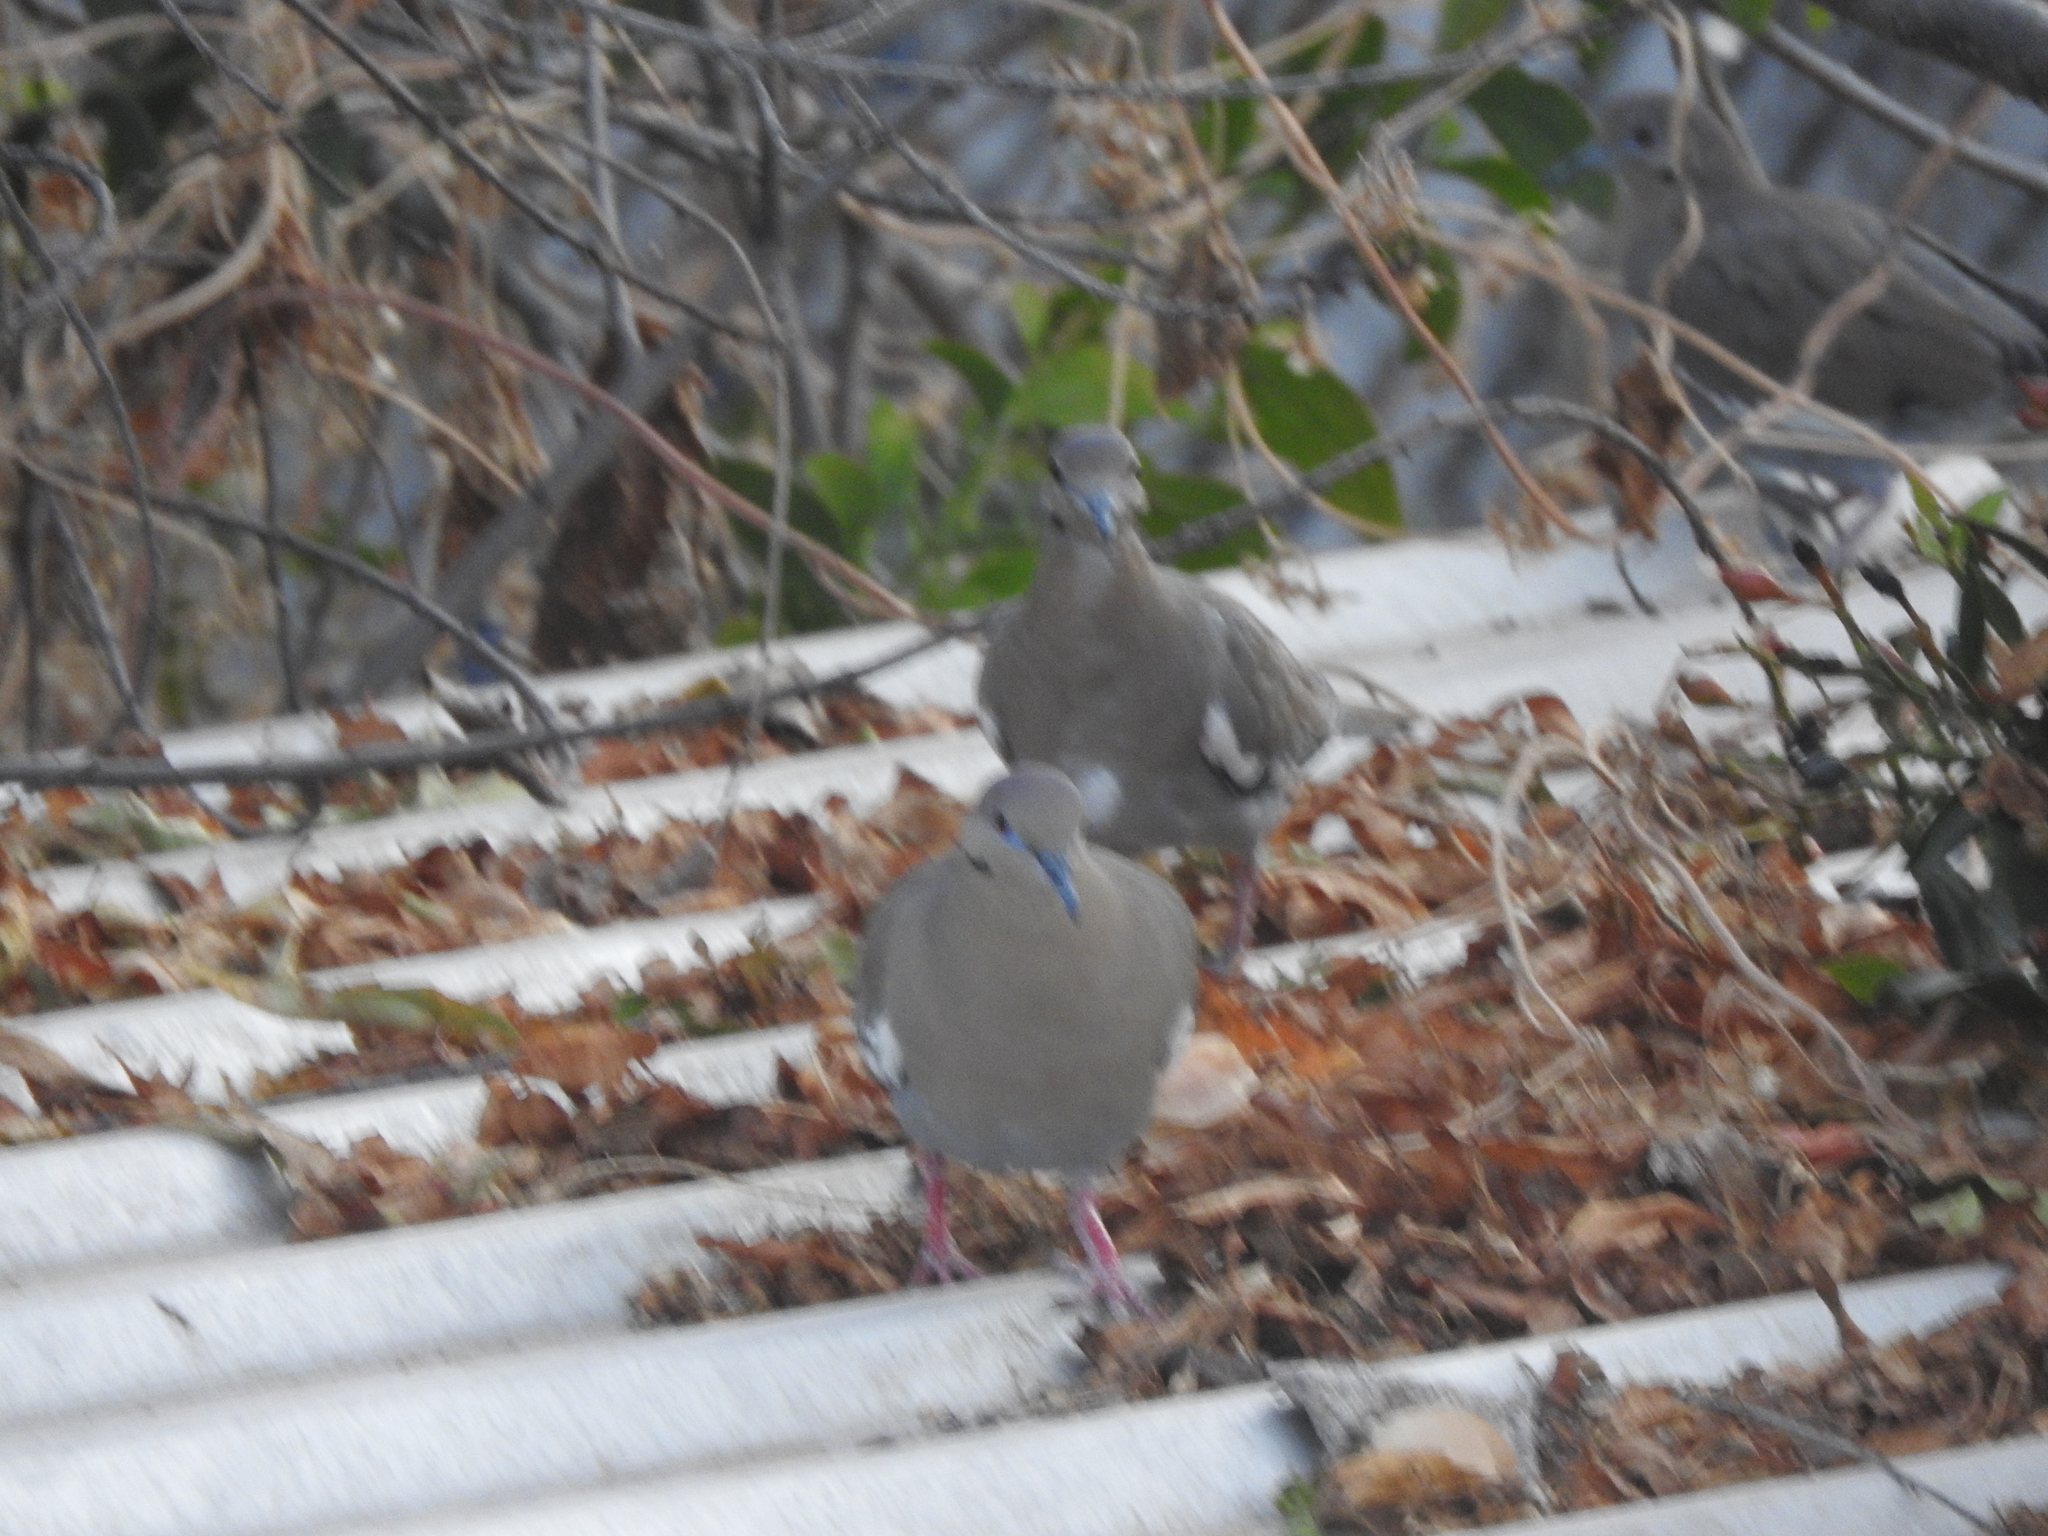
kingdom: Animalia
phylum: Chordata
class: Aves
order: Columbiformes
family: Columbidae
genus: Zenaida
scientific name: Zenaida asiatica
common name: White-winged dove
